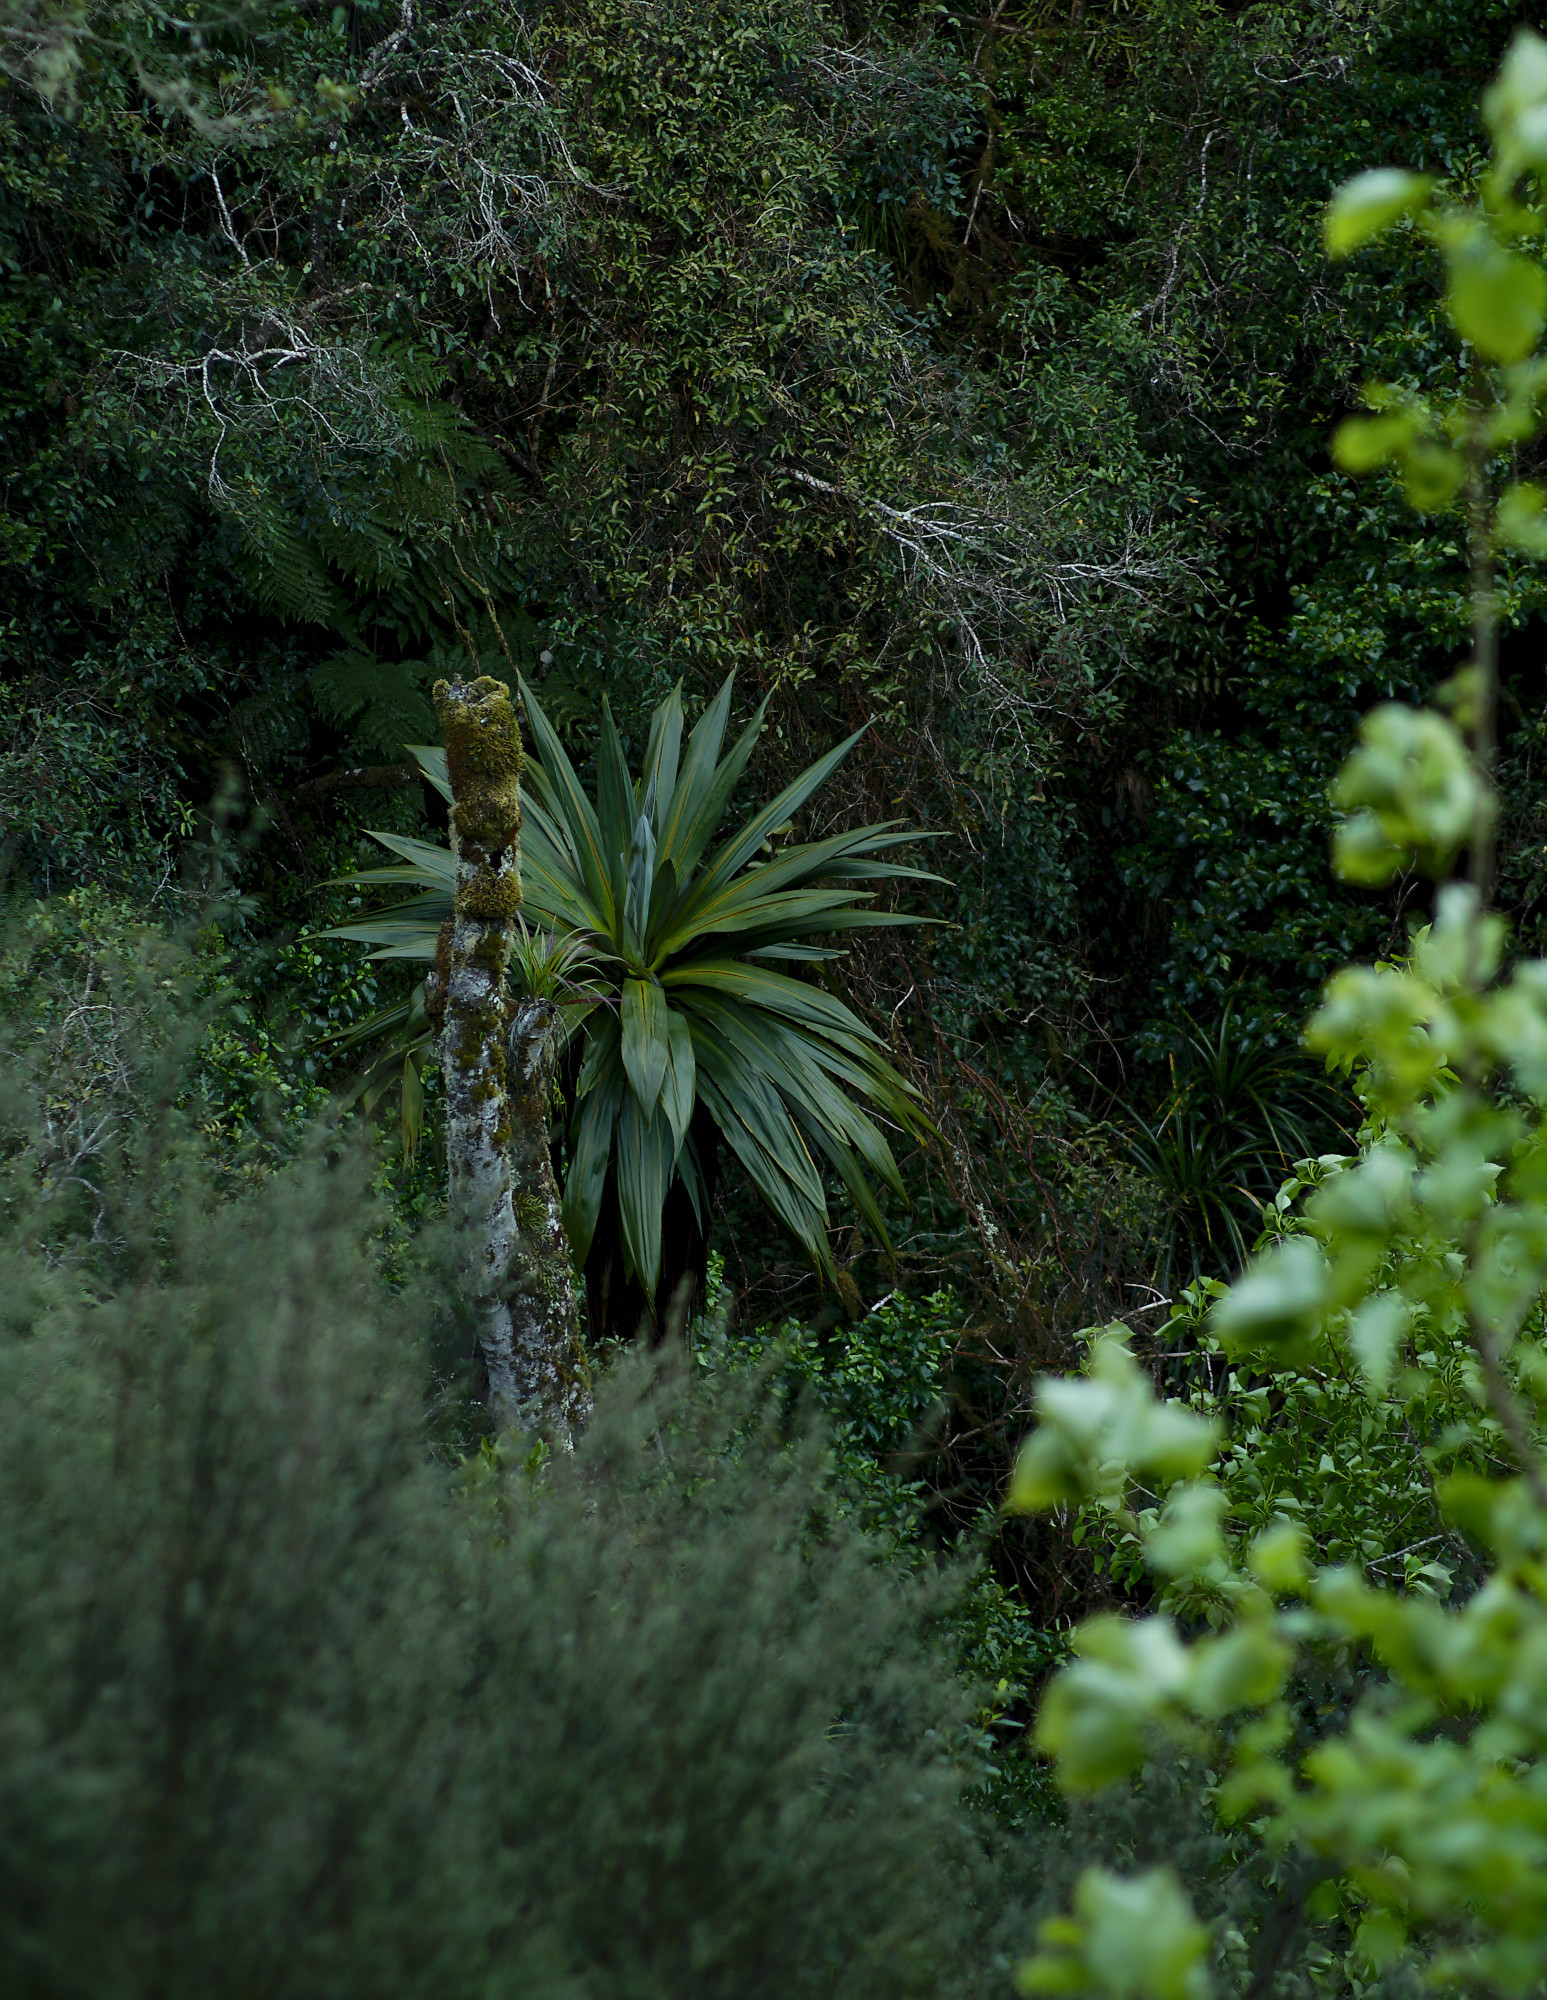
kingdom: Plantae
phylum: Tracheophyta
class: Liliopsida
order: Asparagales
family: Asparagaceae
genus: Cordyline
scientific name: Cordyline indivisa
